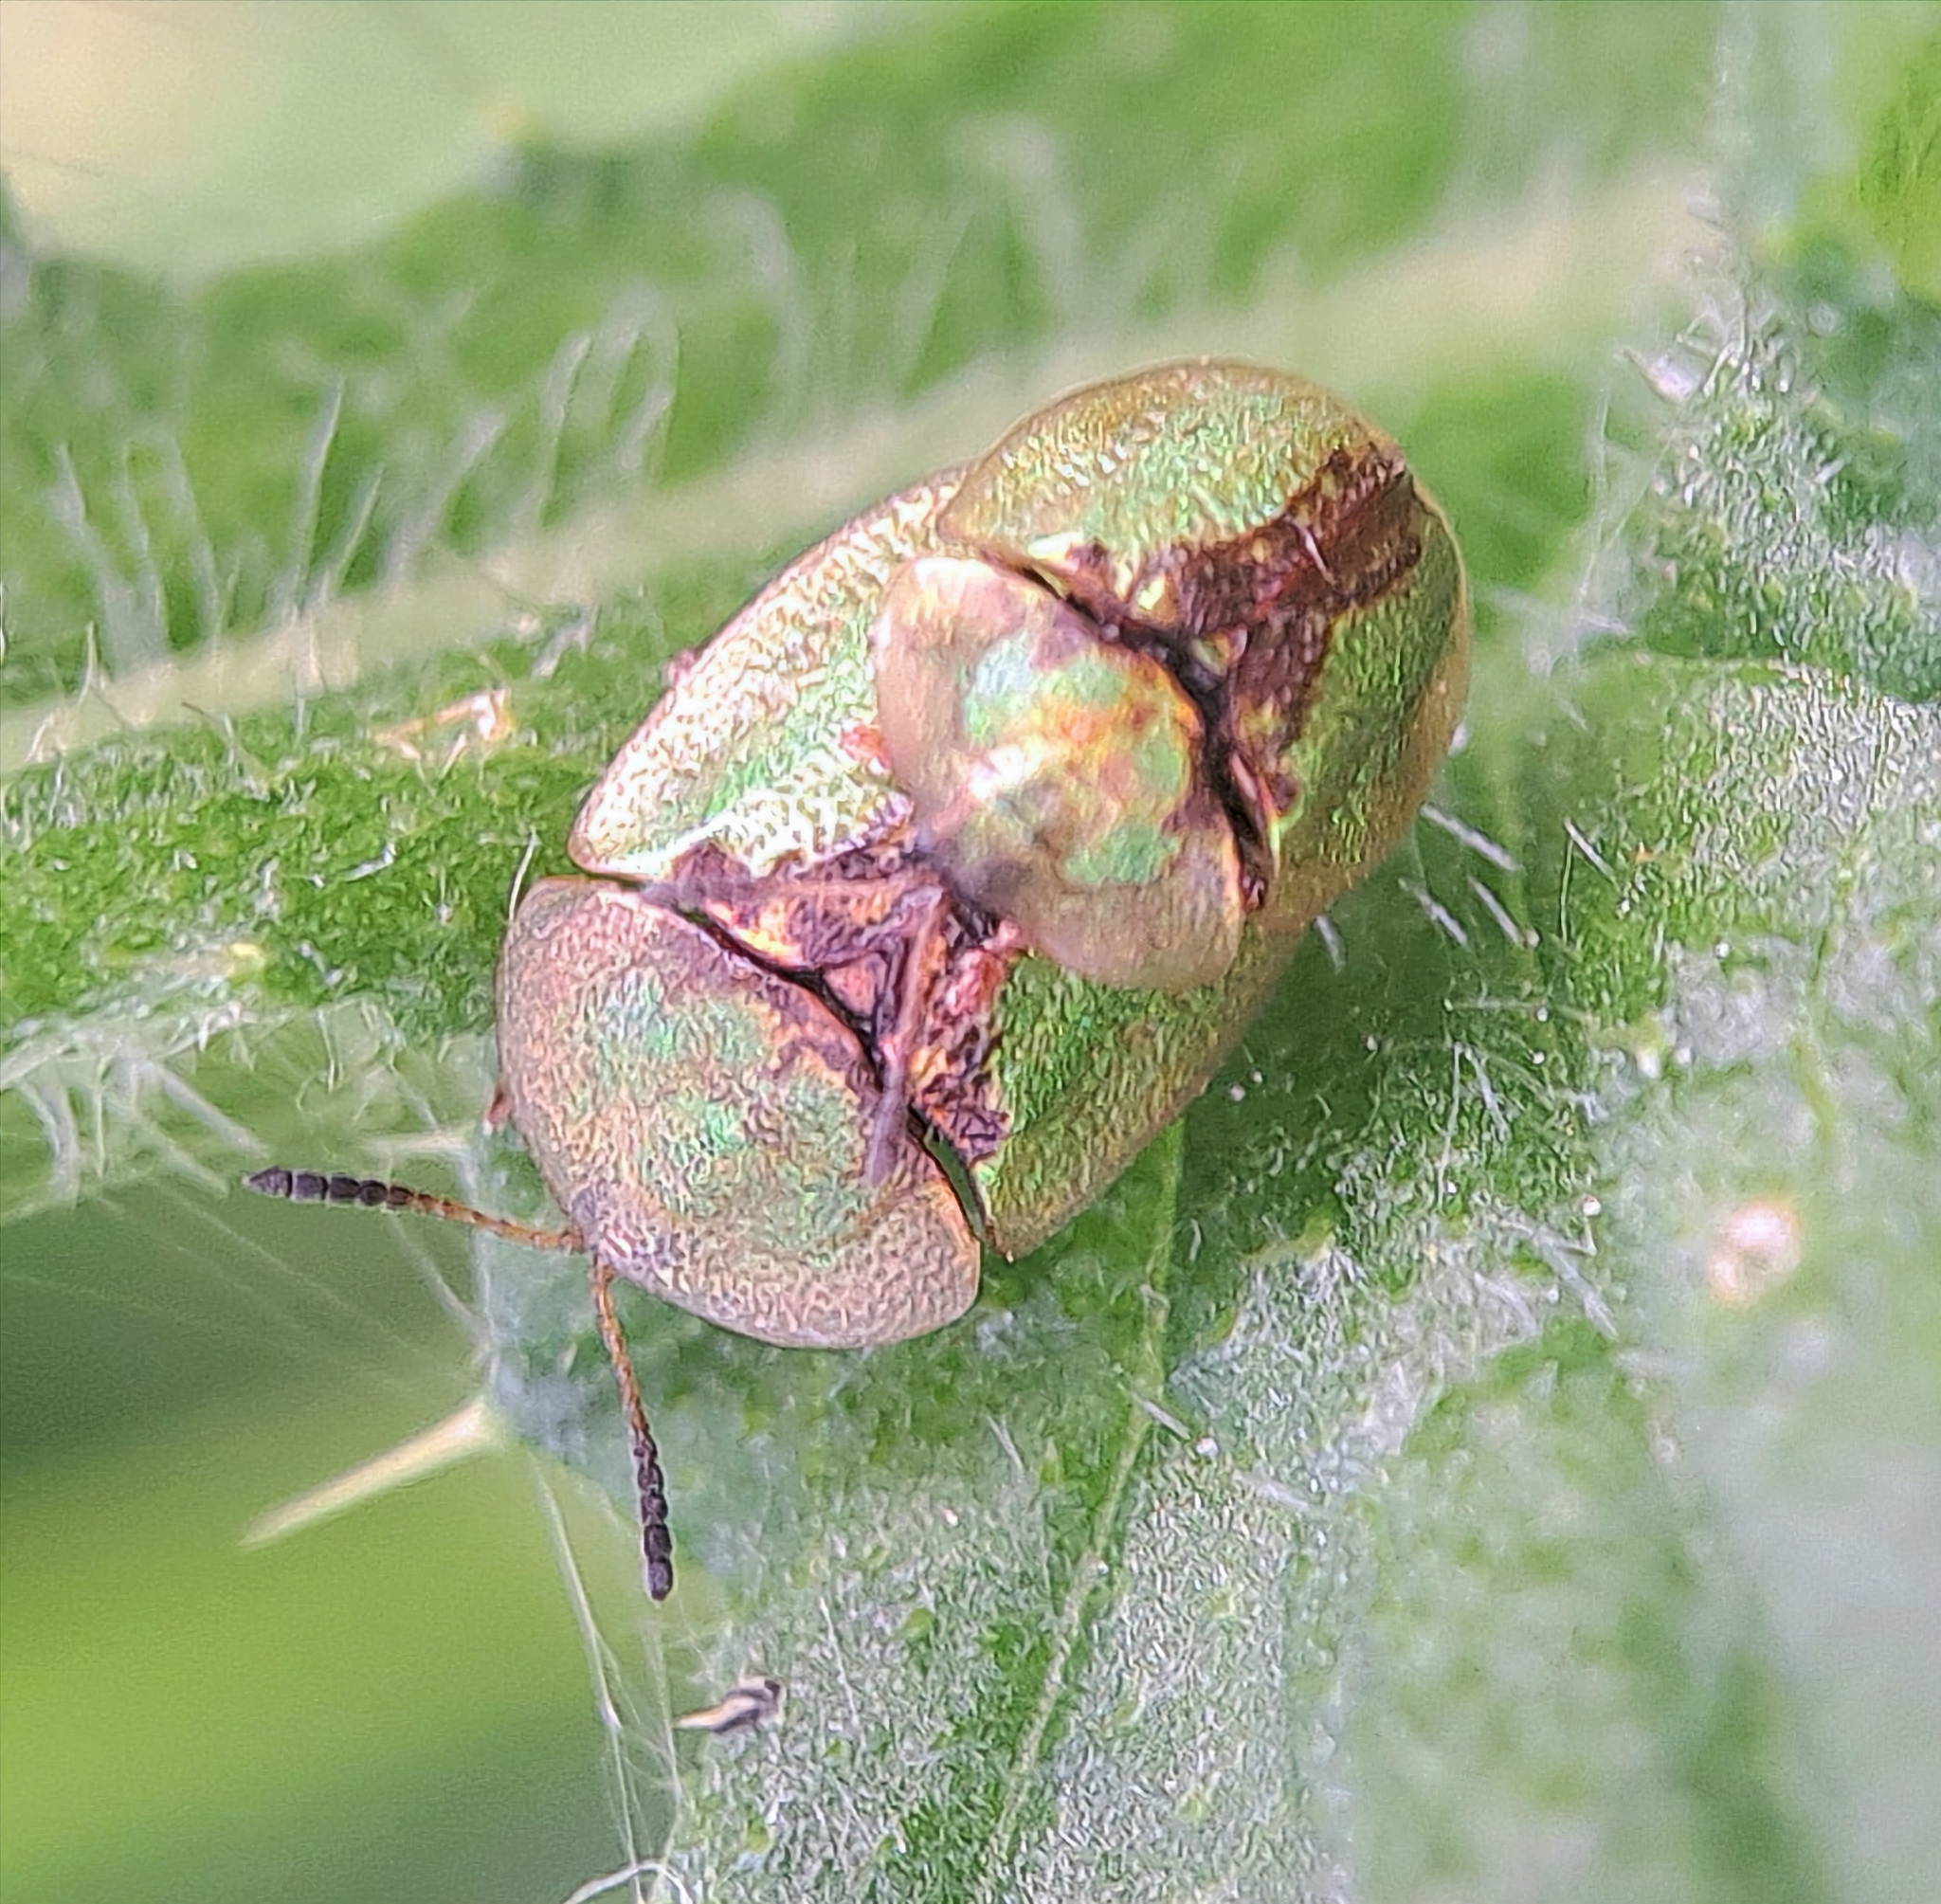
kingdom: Animalia
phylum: Arthropoda
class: Insecta
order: Coleoptera
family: Chrysomelidae
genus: Cassida
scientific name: Cassida vibex
